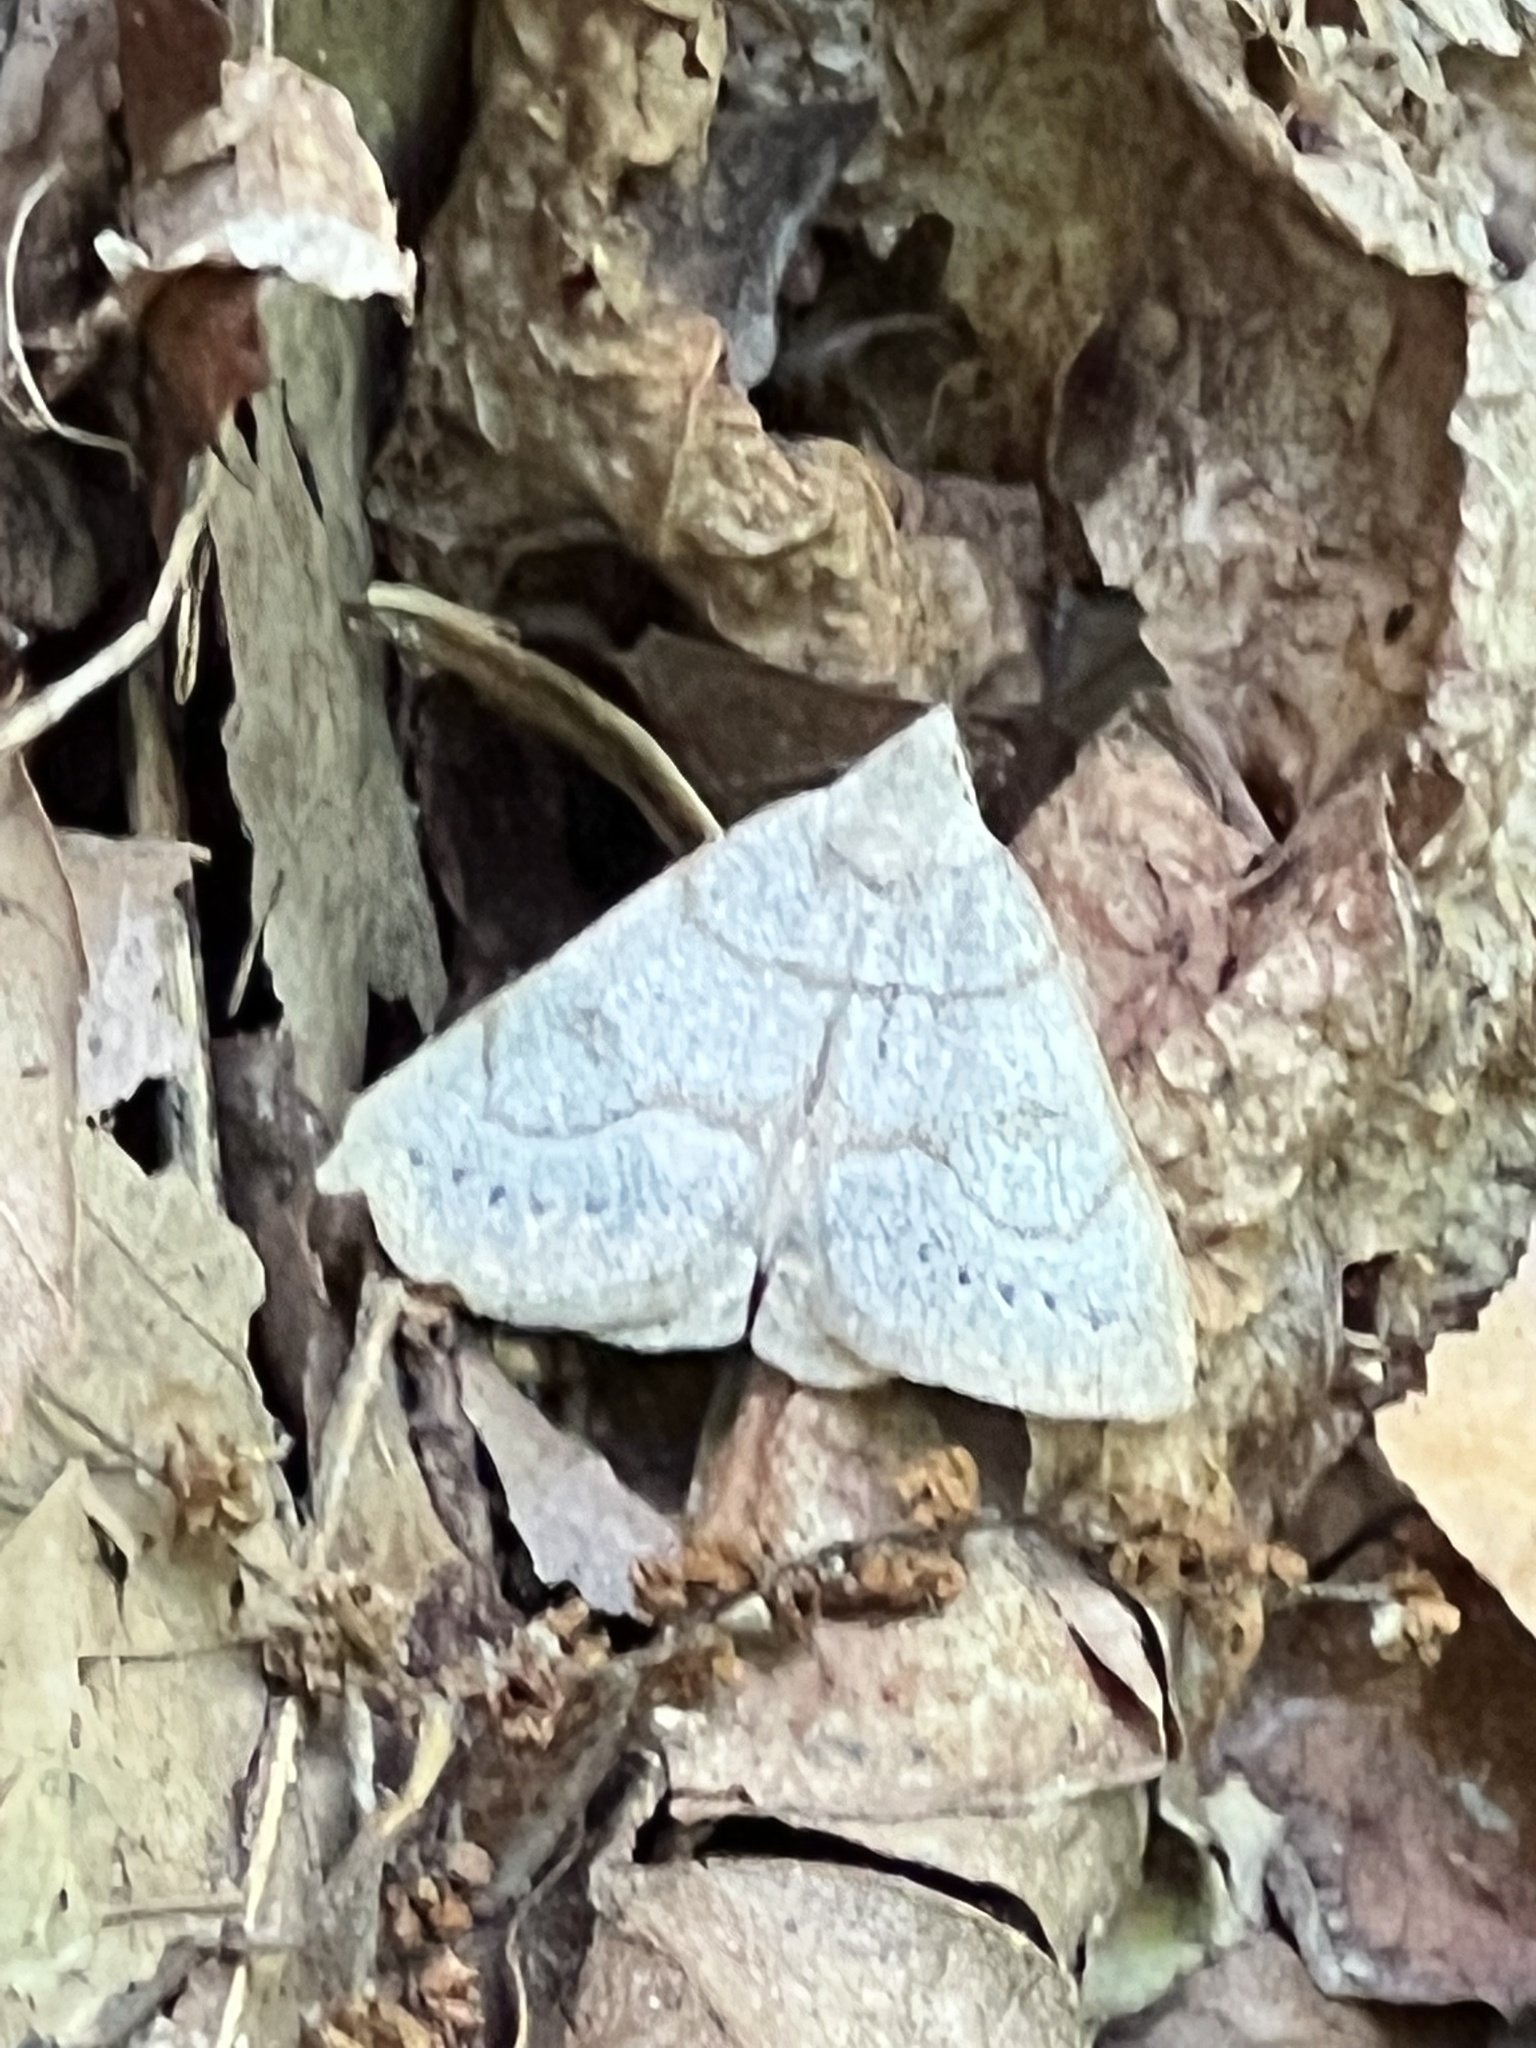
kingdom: Animalia
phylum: Arthropoda
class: Insecta
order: Lepidoptera
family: Erebidae
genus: Macrochilo
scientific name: Macrochilo morbidalis
